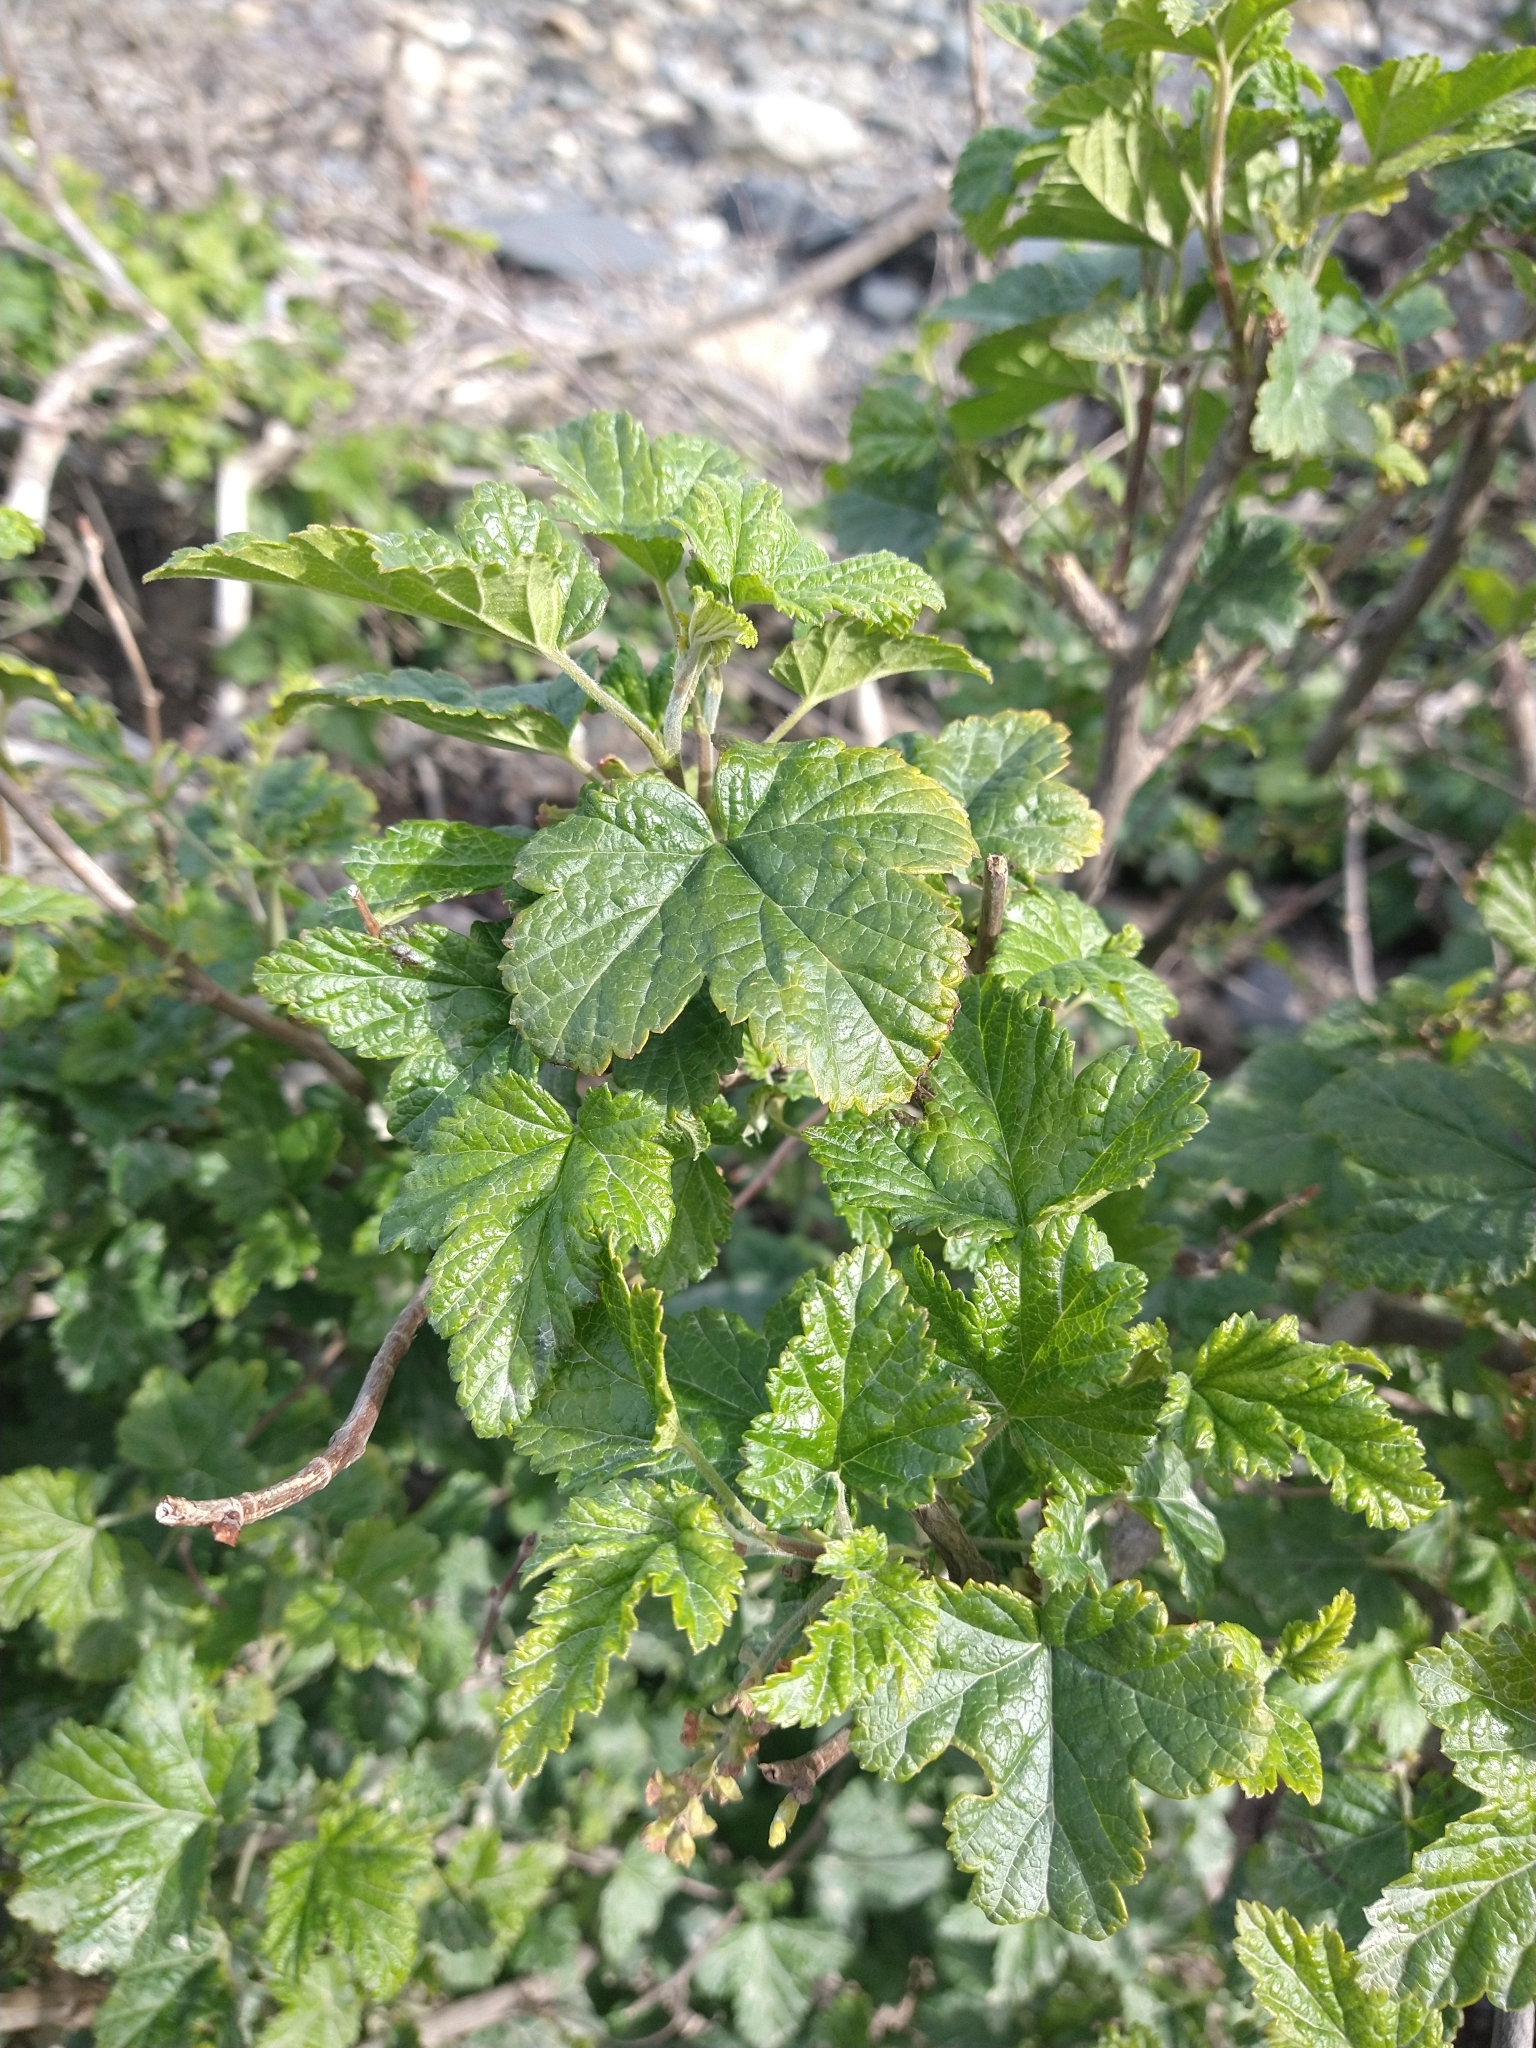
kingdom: Plantae
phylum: Tracheophyta
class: Magnoliopsida
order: Saxifragales
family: Grossulariaceae
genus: Ribes
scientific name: Ribes magellanicum
